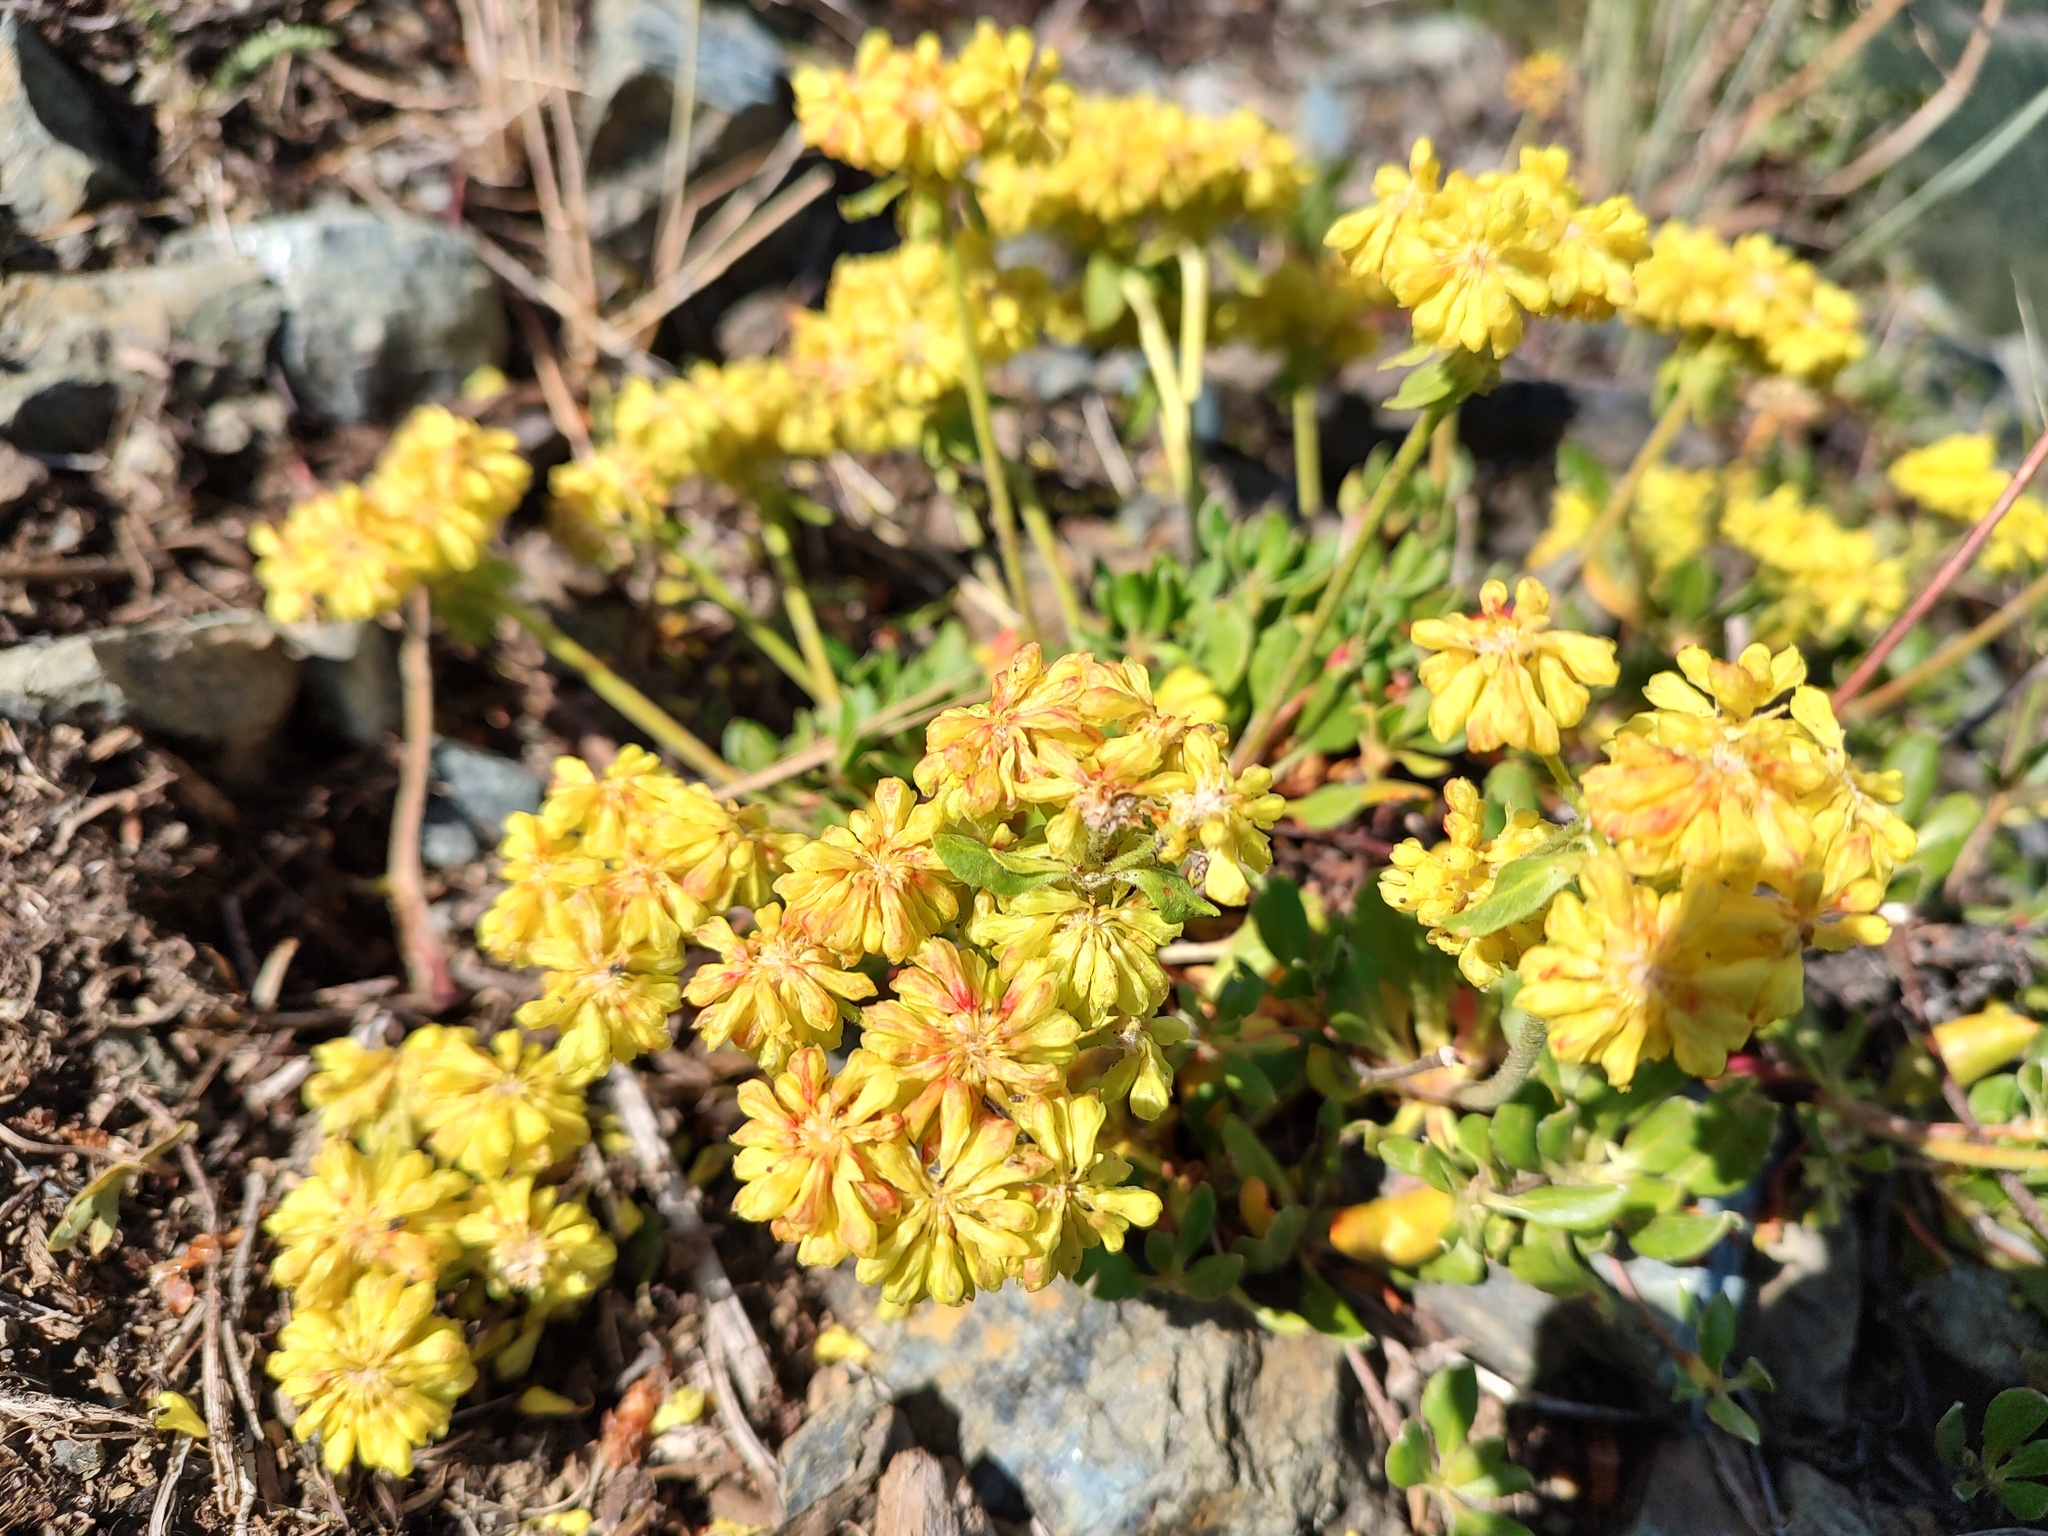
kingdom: Plantae
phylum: Tracheophyta
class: Magnoliopsida
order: Caryophyllales
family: Polygonaceae
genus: Eriogonum
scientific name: Eriogonum umbellatum
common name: Sulfur-buckwheat
